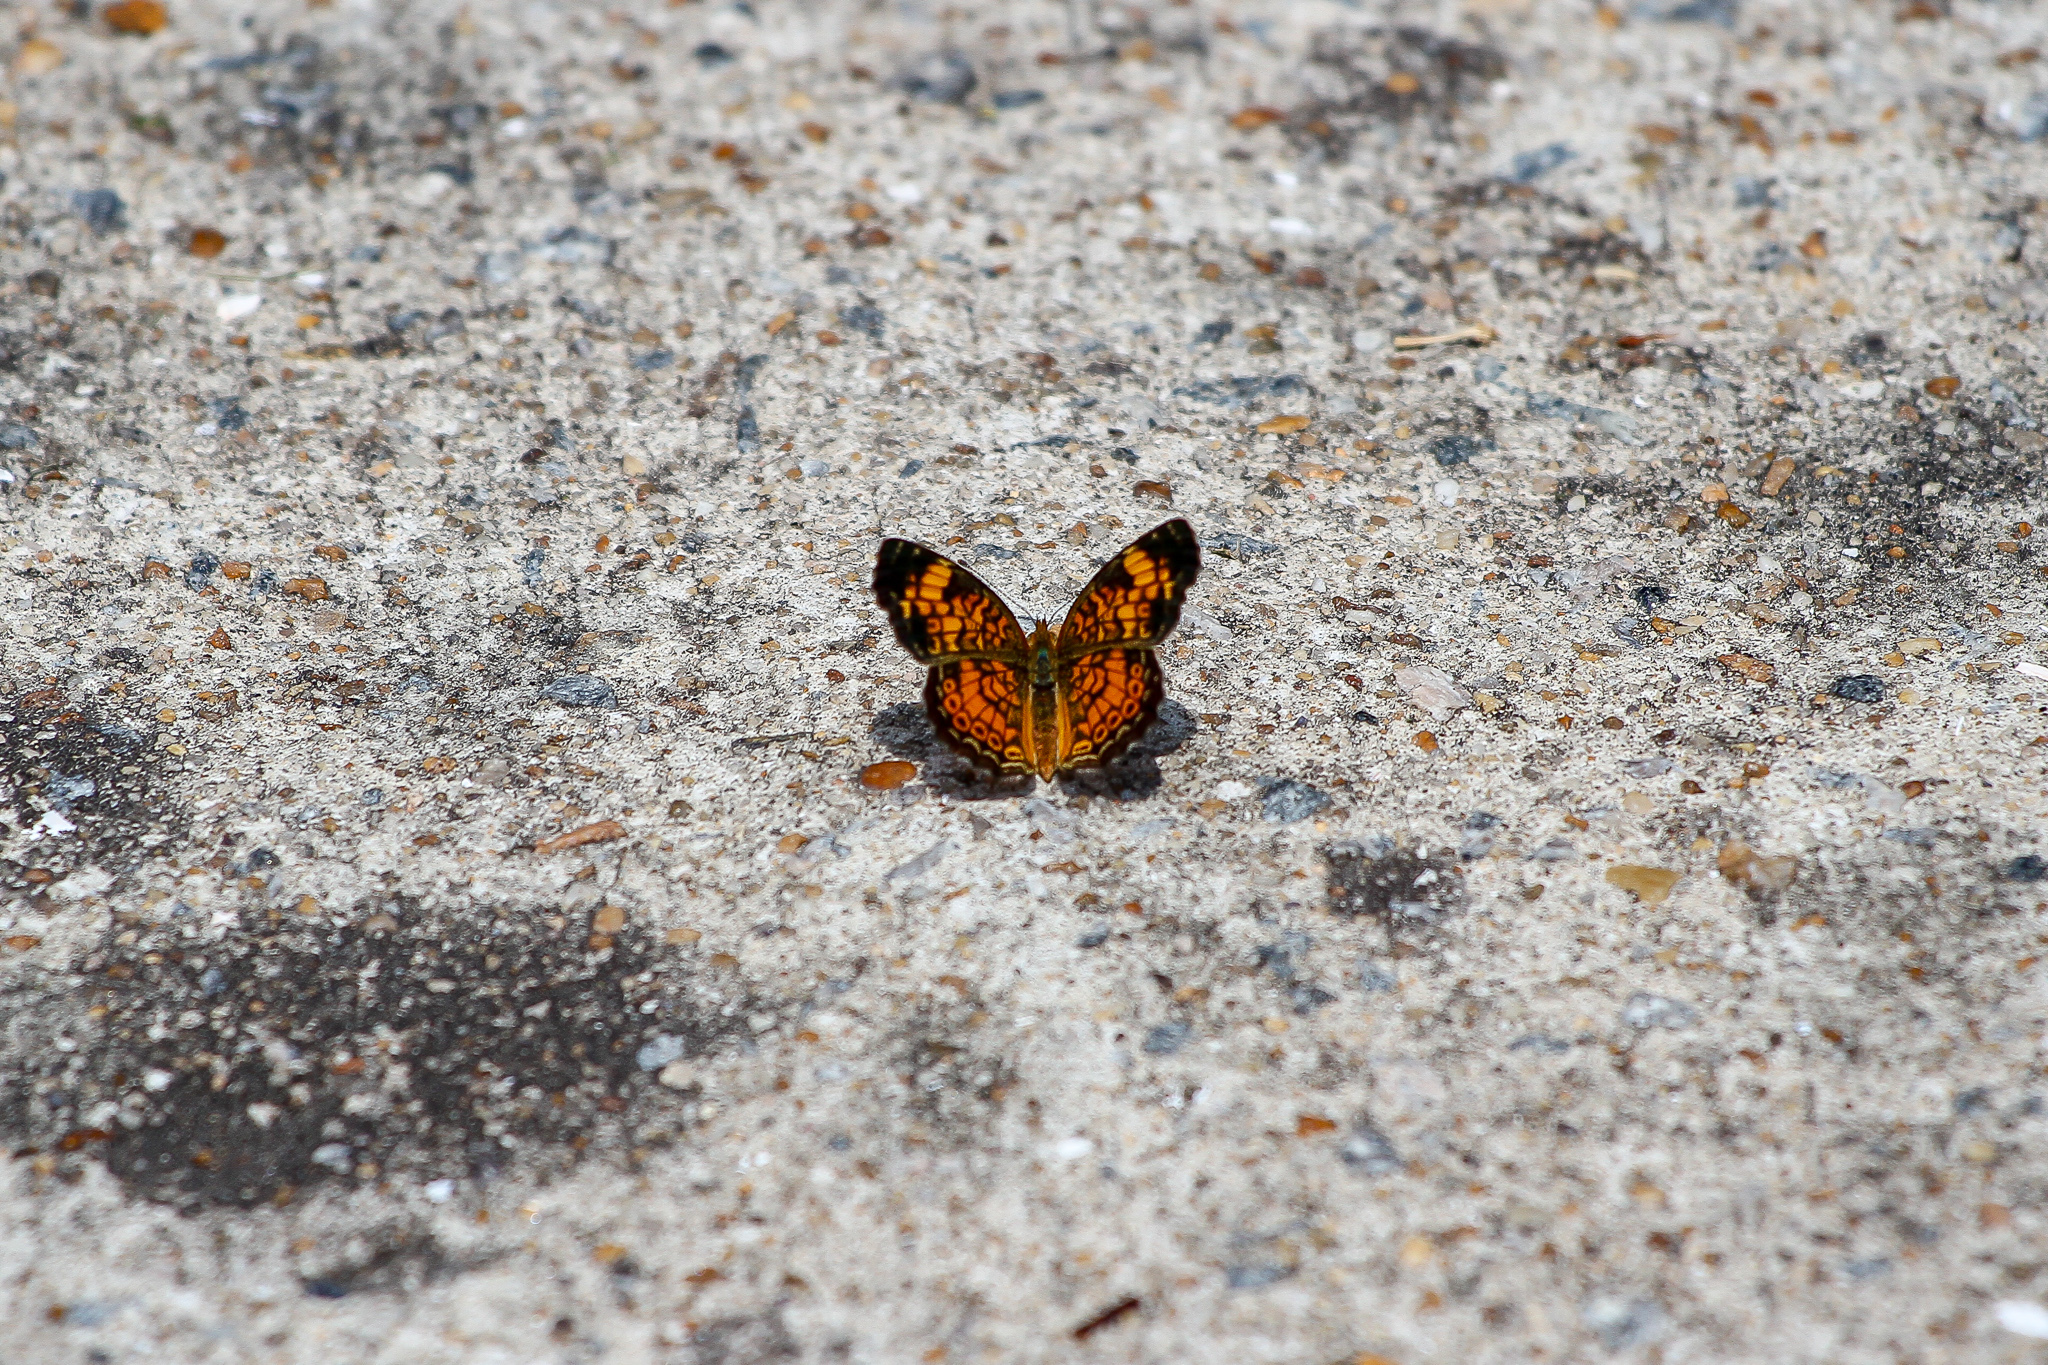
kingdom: Animalia
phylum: Arthropoda
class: Insecta
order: Lepidoptera
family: Nymphalidae
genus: Phyciodes
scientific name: Phyciodes tharos
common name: Pearl crescent
